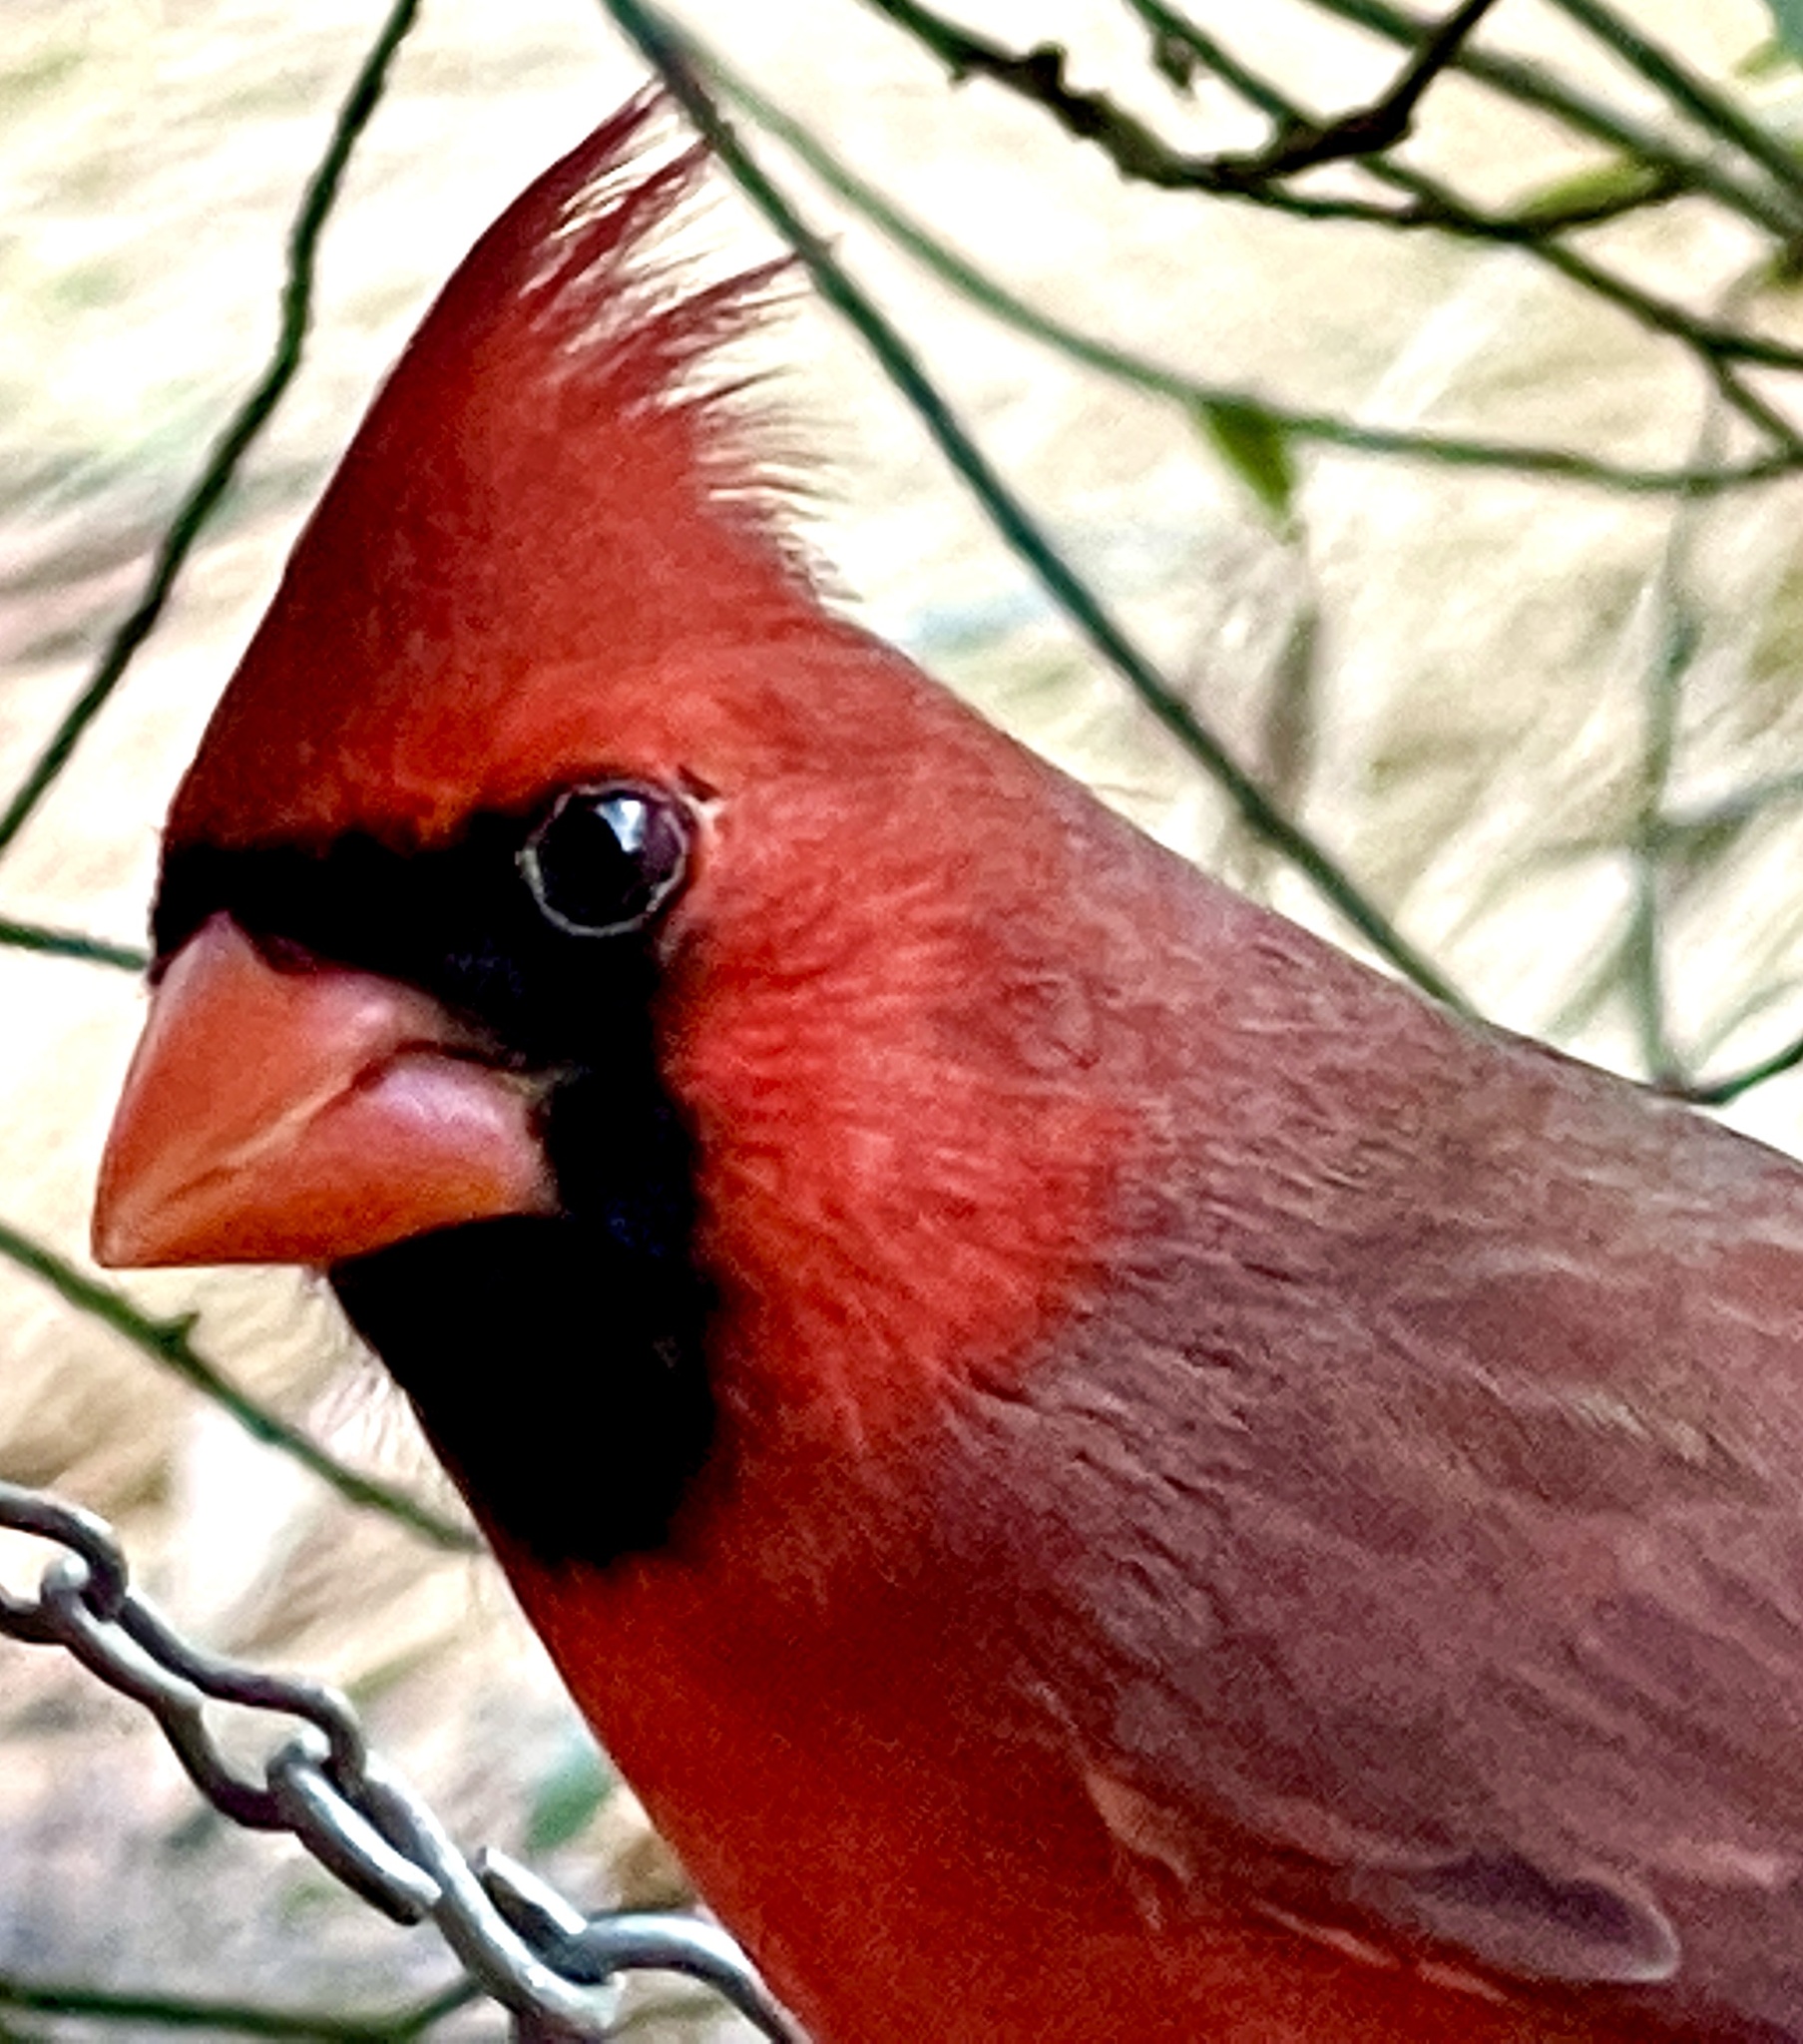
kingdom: Animalia
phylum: Chordata
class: Aves
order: Passeriformes
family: Cardinalidae
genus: Cardinalis
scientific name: Cardinalis cardinalis
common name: Northern cardinal
